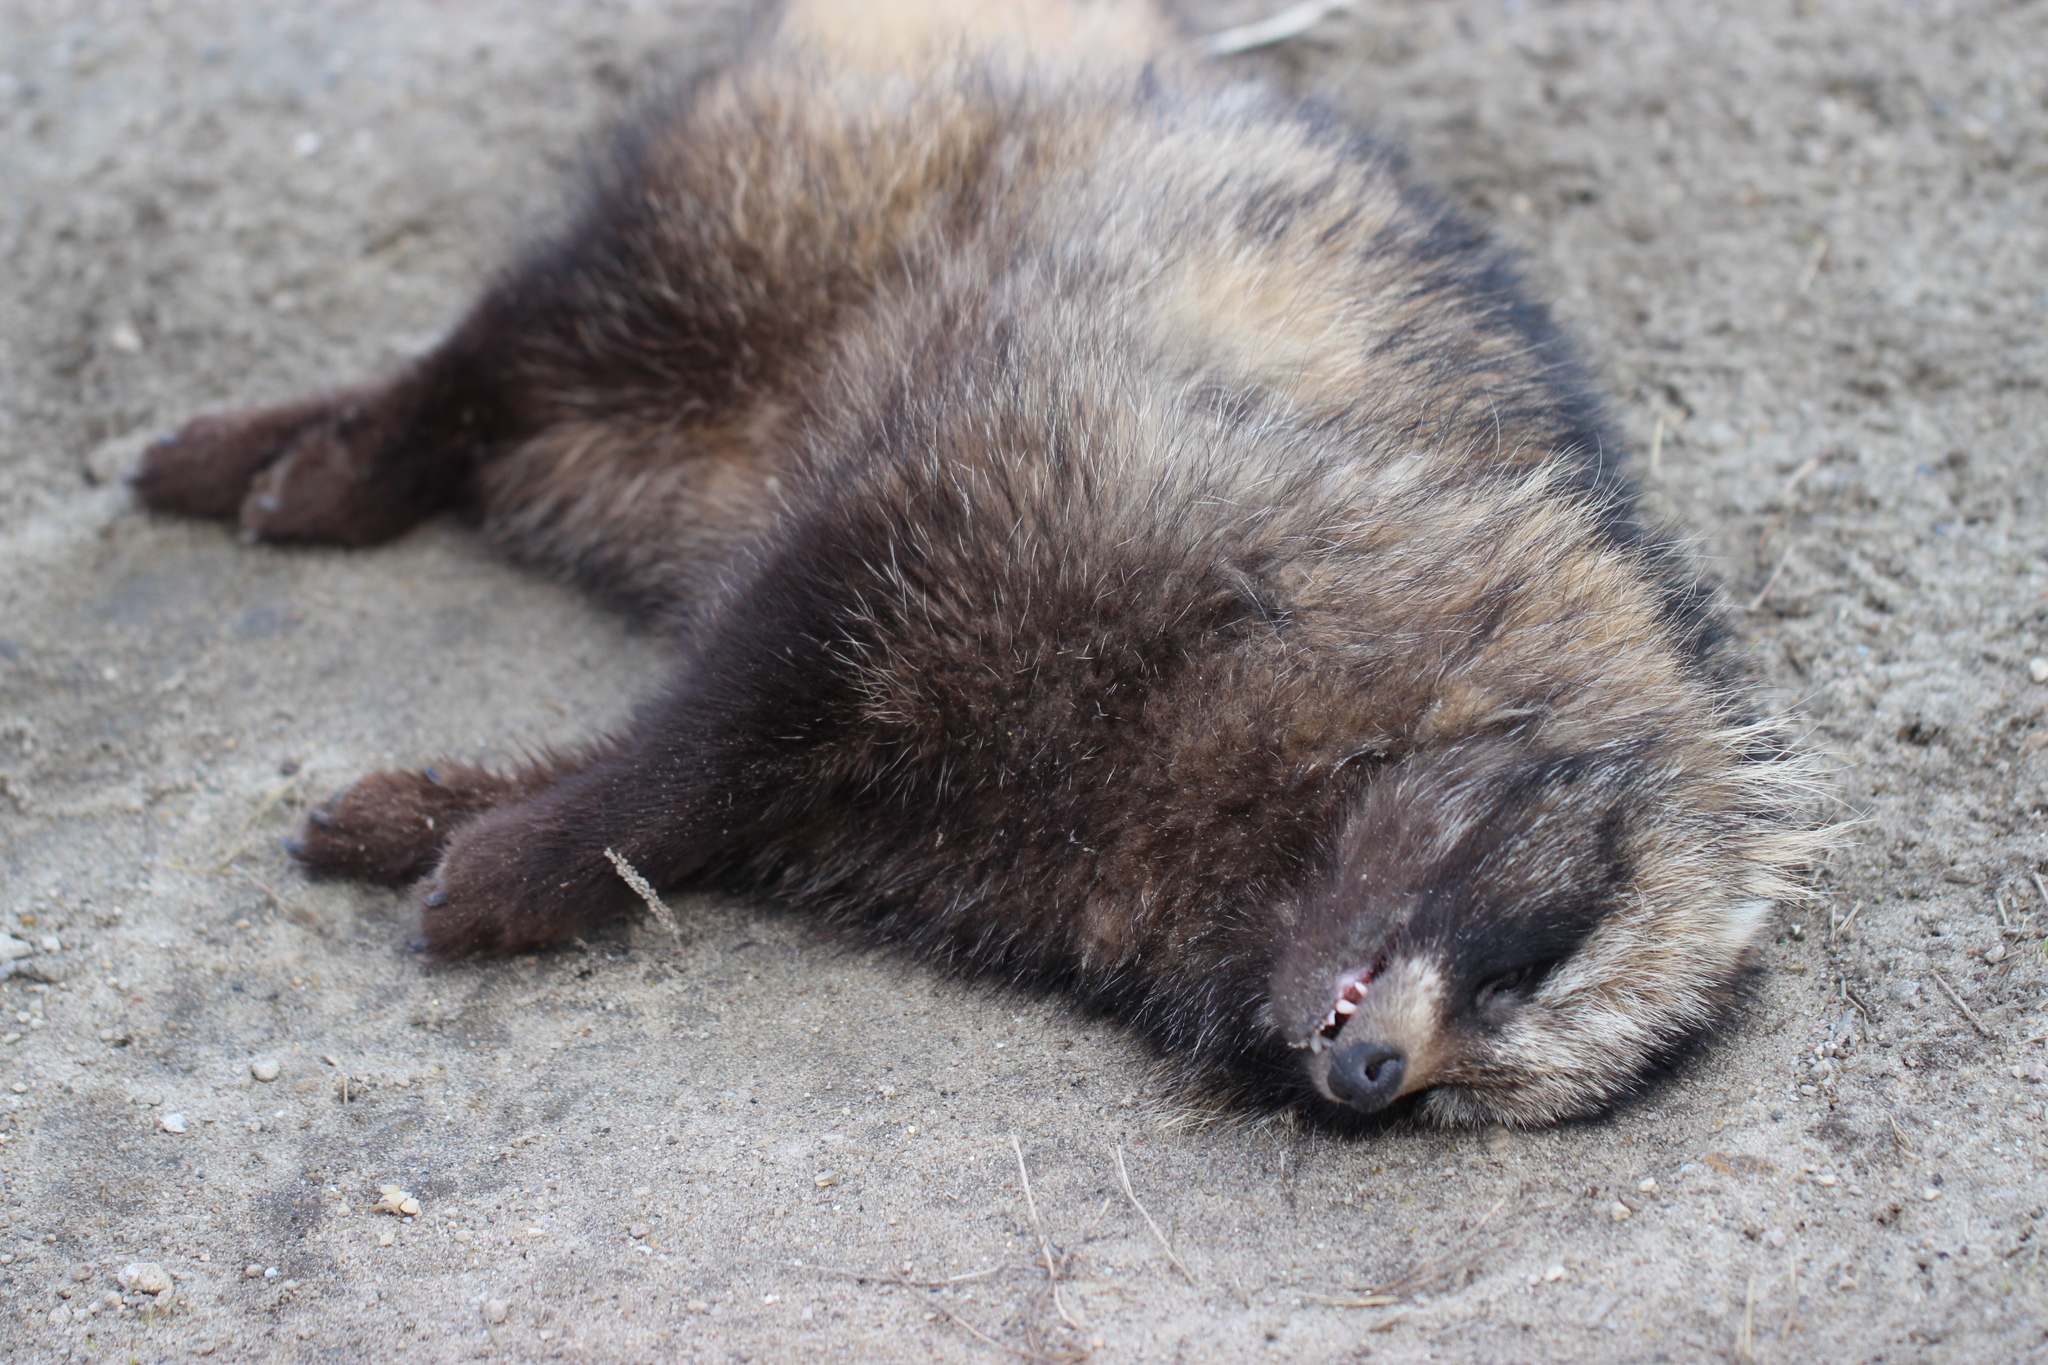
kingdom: Animalia
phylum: Chordata
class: Mammalia
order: Carnivora
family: Canidae
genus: Nyctereutes
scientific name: Nyctereutes procyonoides
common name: Raccoon dog
